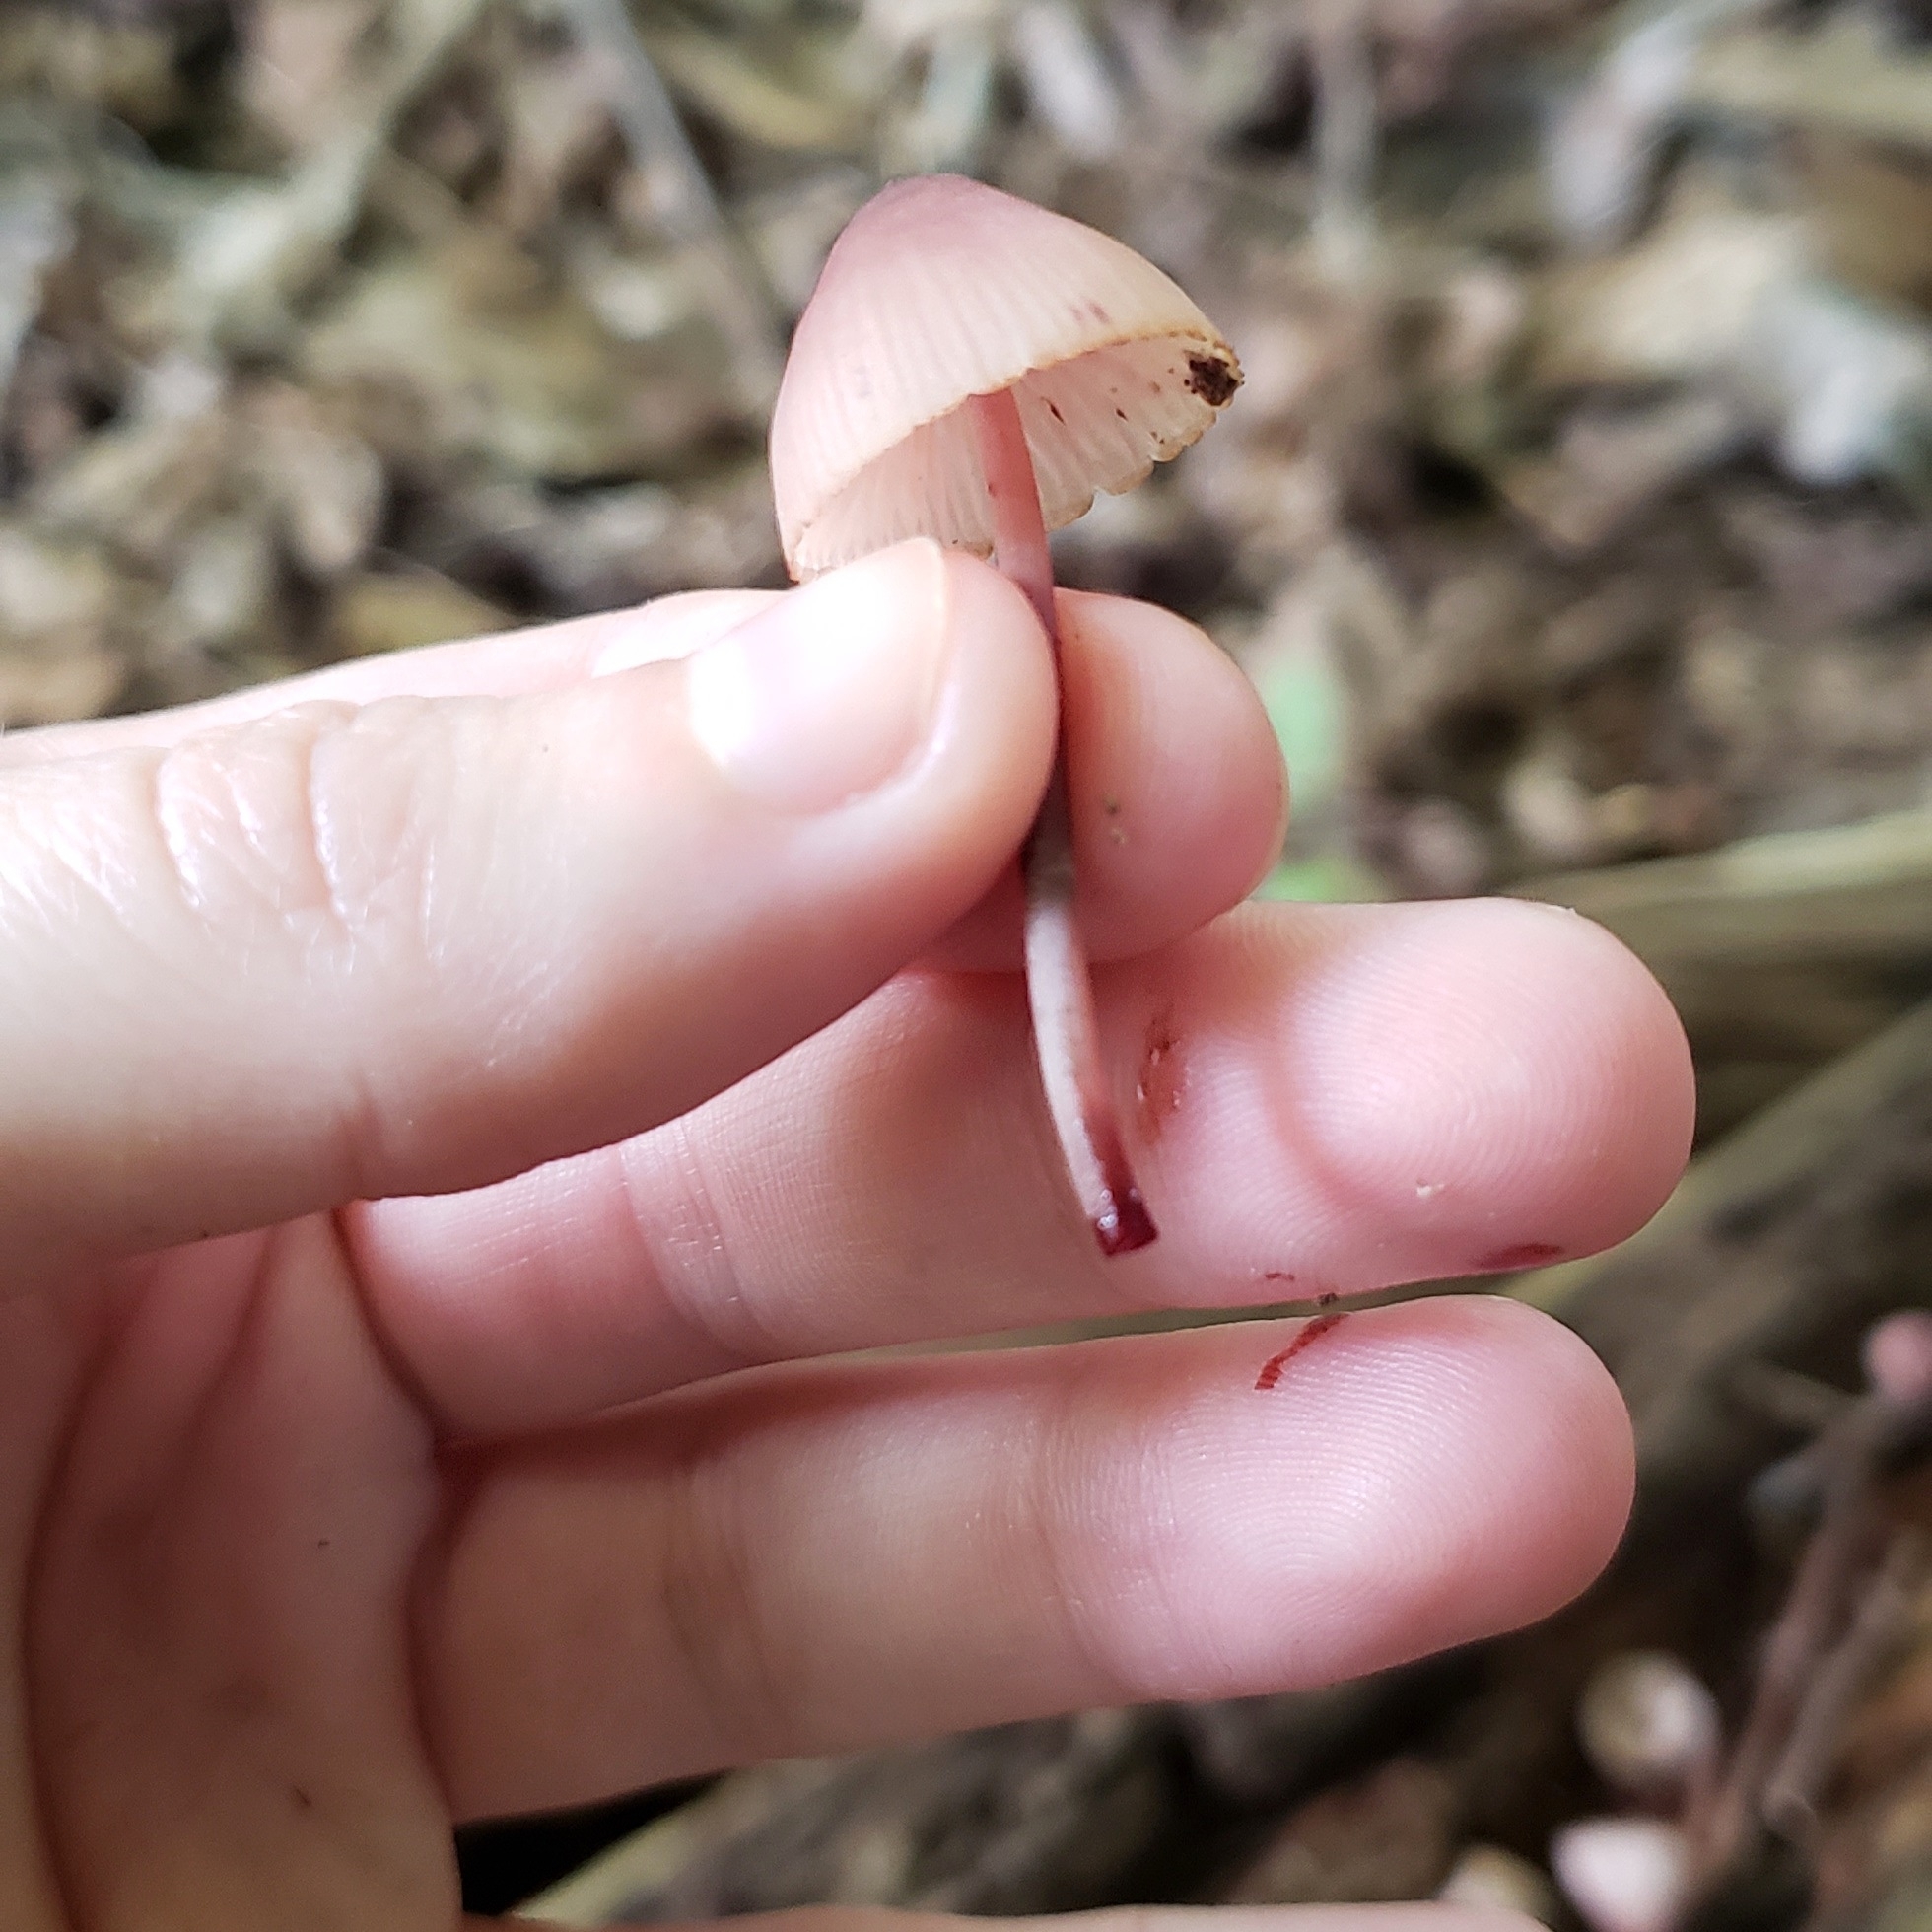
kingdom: Fungi
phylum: Basidiomycota
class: Agaricomycetes
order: Agaricales
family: Mycenaceae
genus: Mycena
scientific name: Mycena haematopus
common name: Burgundydrop bonnet
